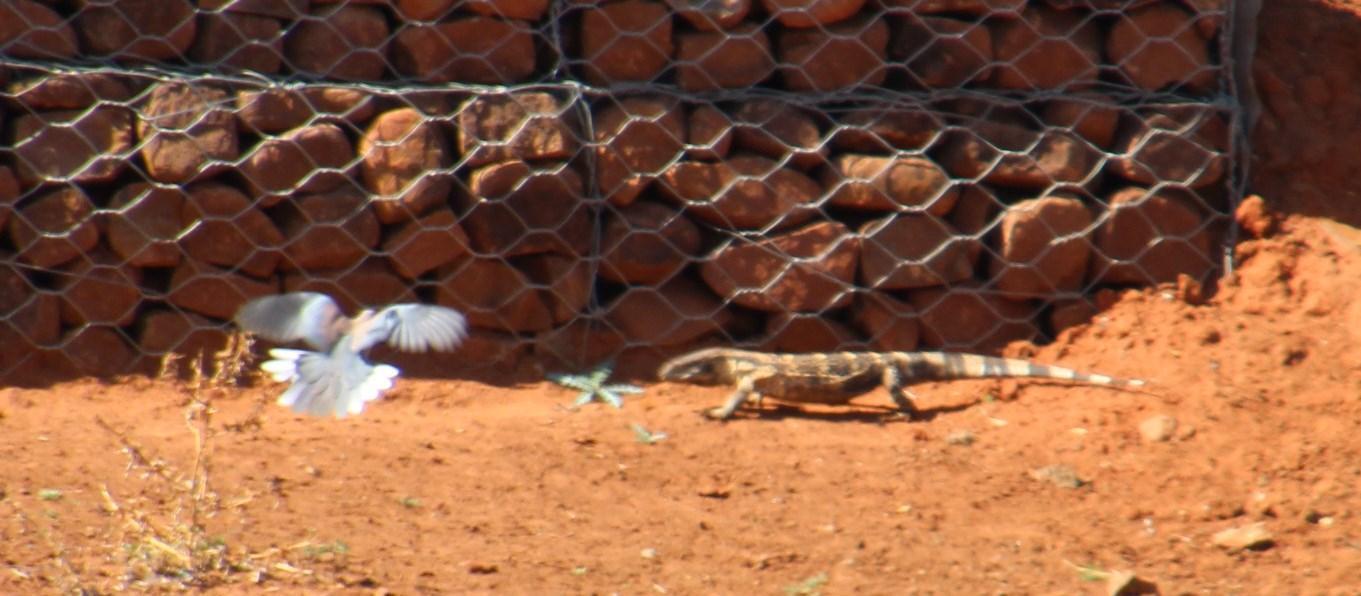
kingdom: Animalia
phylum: Chordata
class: Squamata
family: Varanidae
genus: Varanus
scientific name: Varanus albigularis
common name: White-throated monitor
